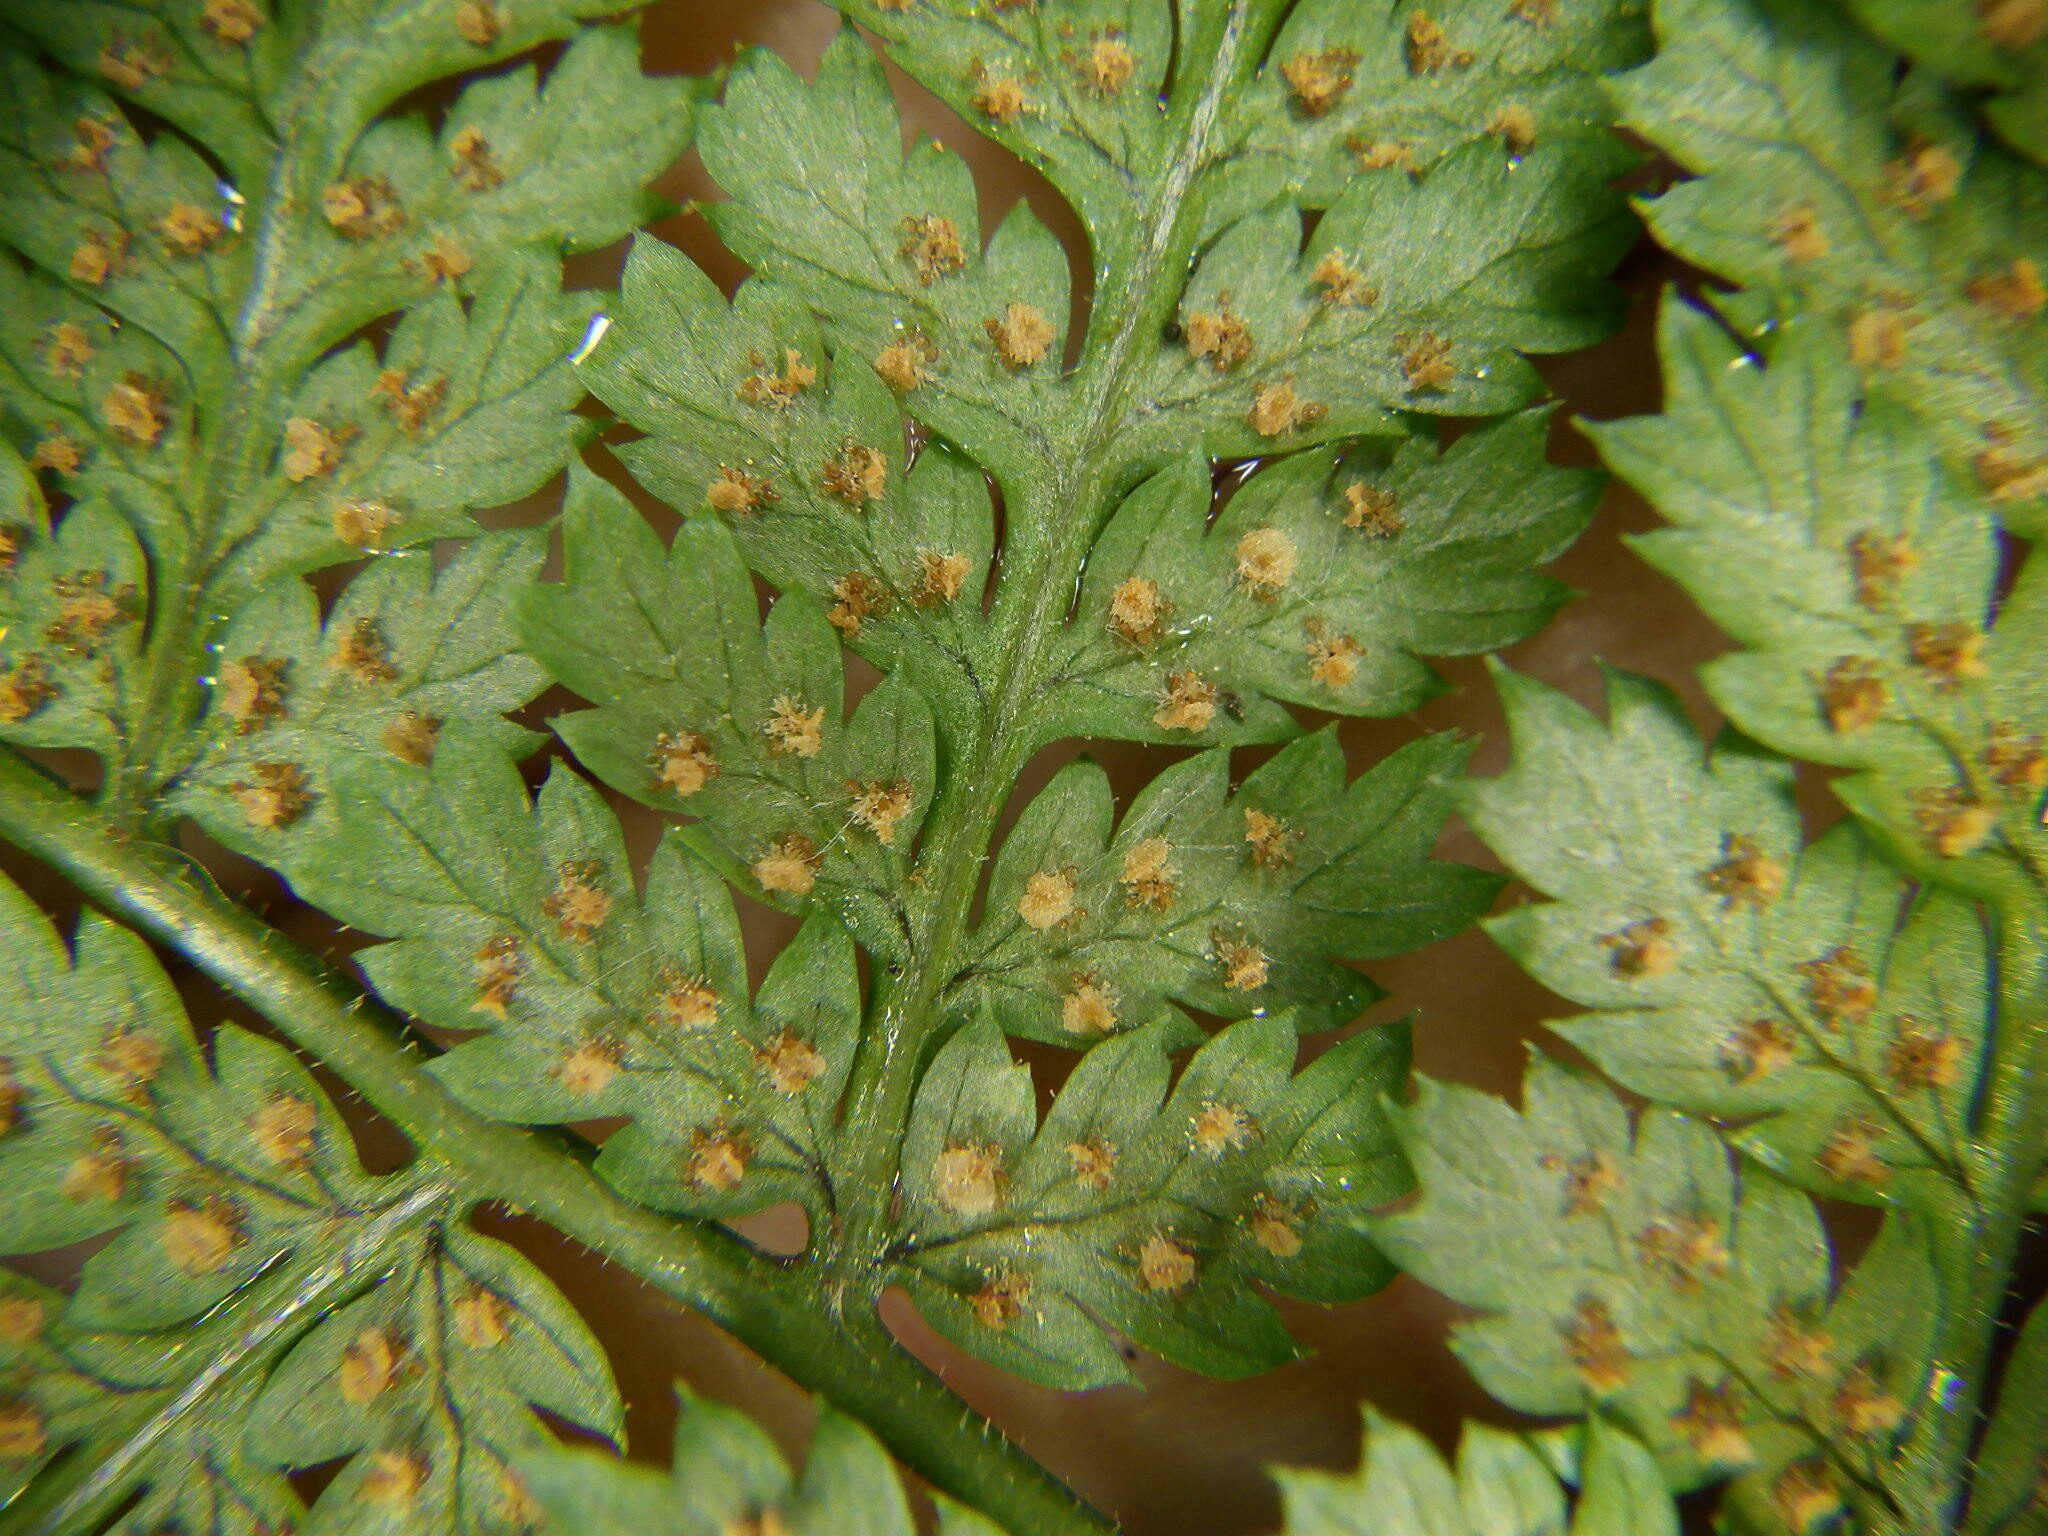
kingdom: Plantae
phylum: Tracheophyta
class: Polypodiopsida
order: Polypodiales
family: Dryopteridaceae
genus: Dryopteris
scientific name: Dryopteris intermedia
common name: Evergreen wood fern
